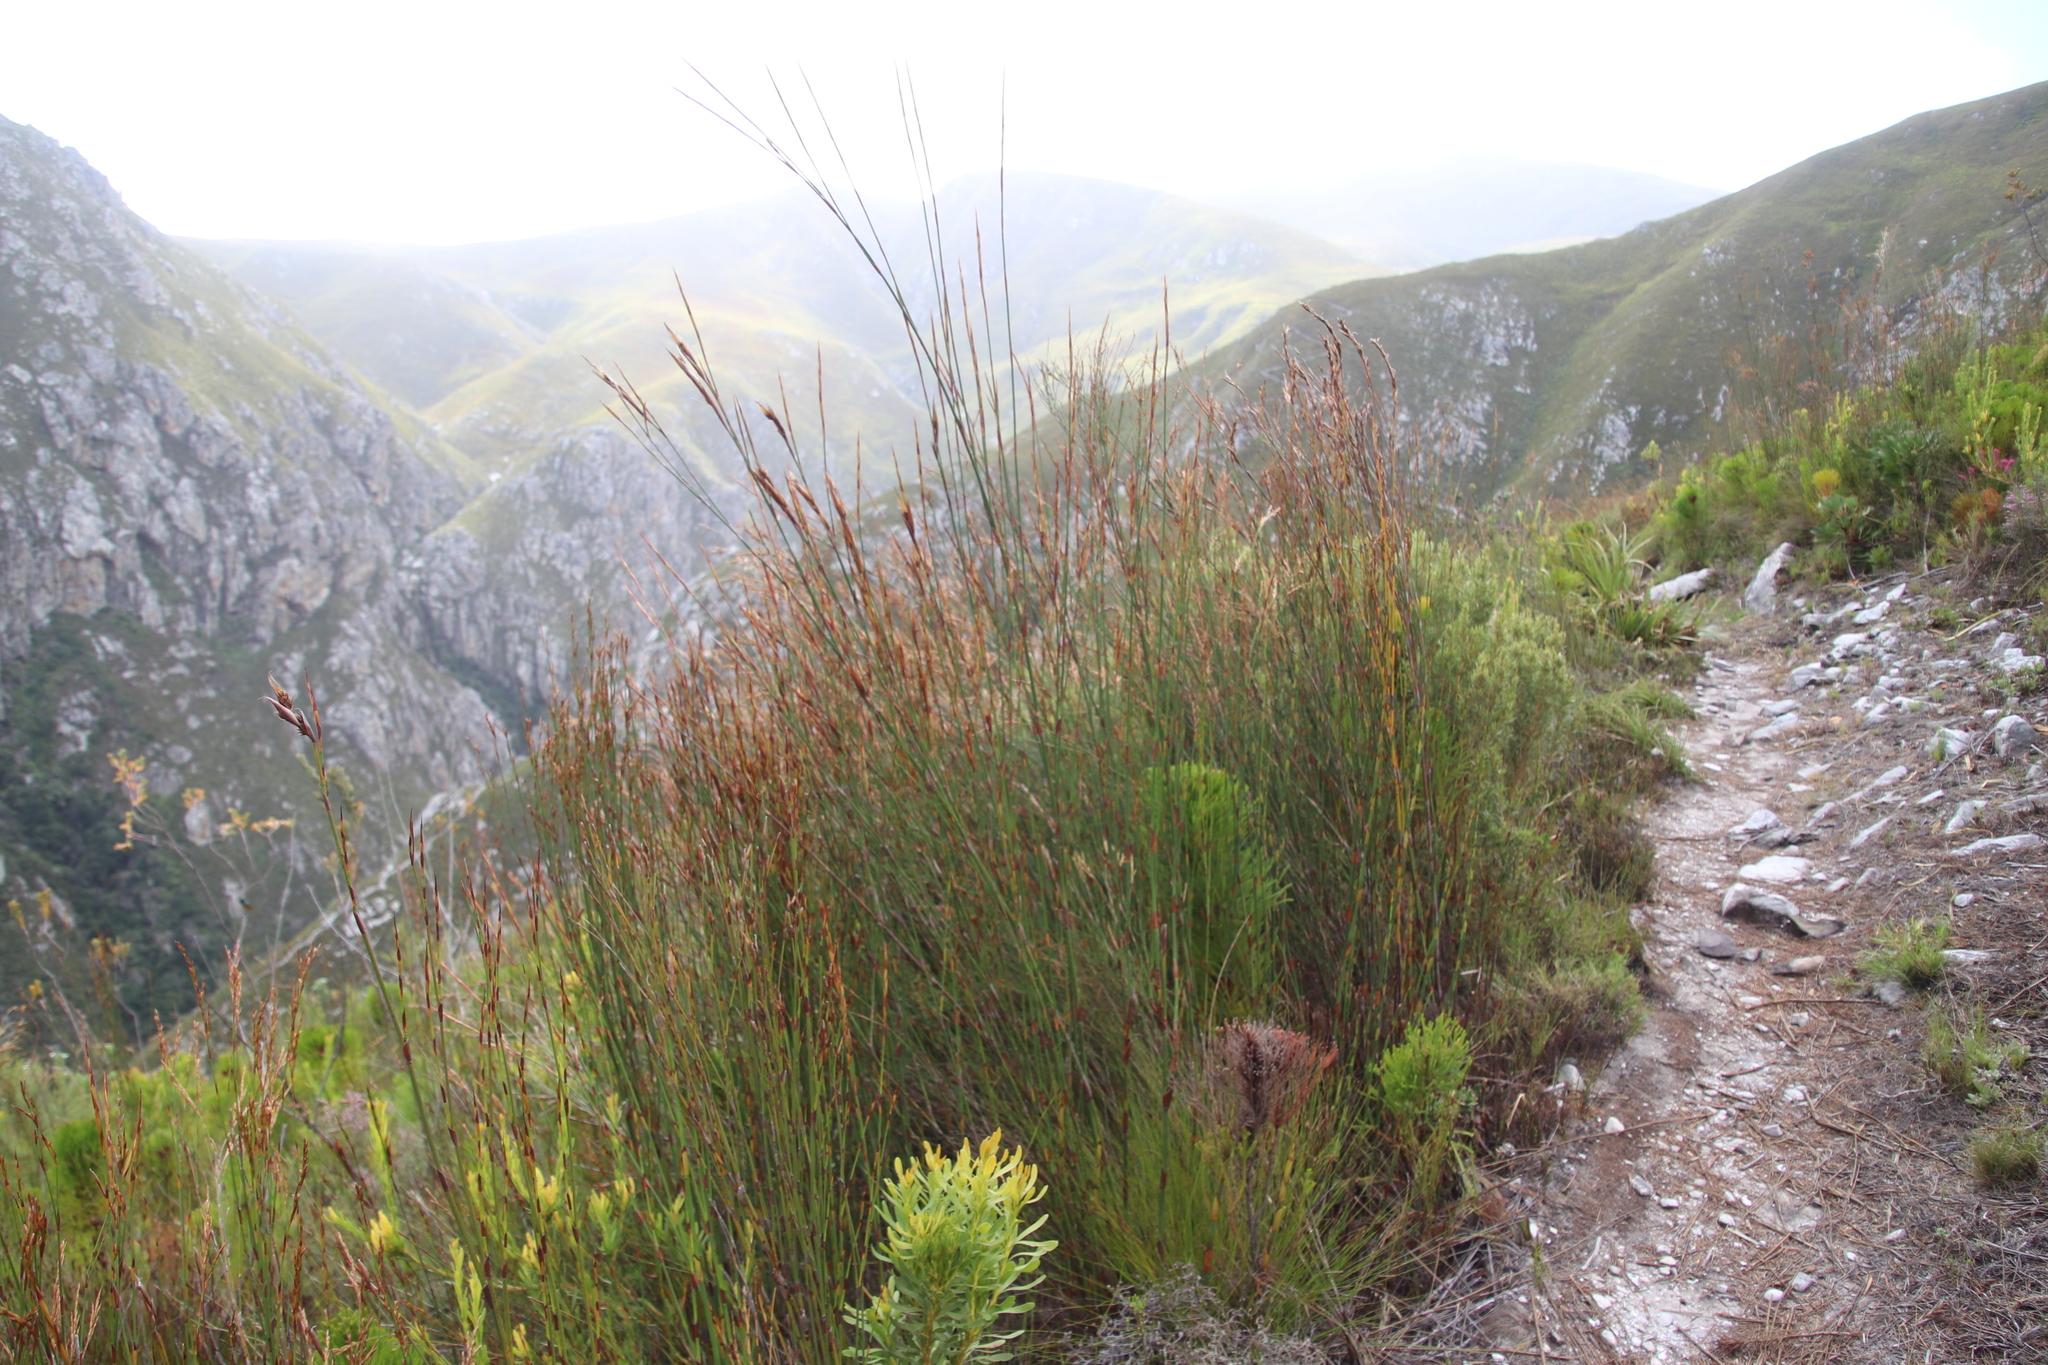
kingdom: Plantae
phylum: Tracheophyta
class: Liliopsida
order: Poales
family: Restionaceae
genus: Restio
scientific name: Restio dispar
